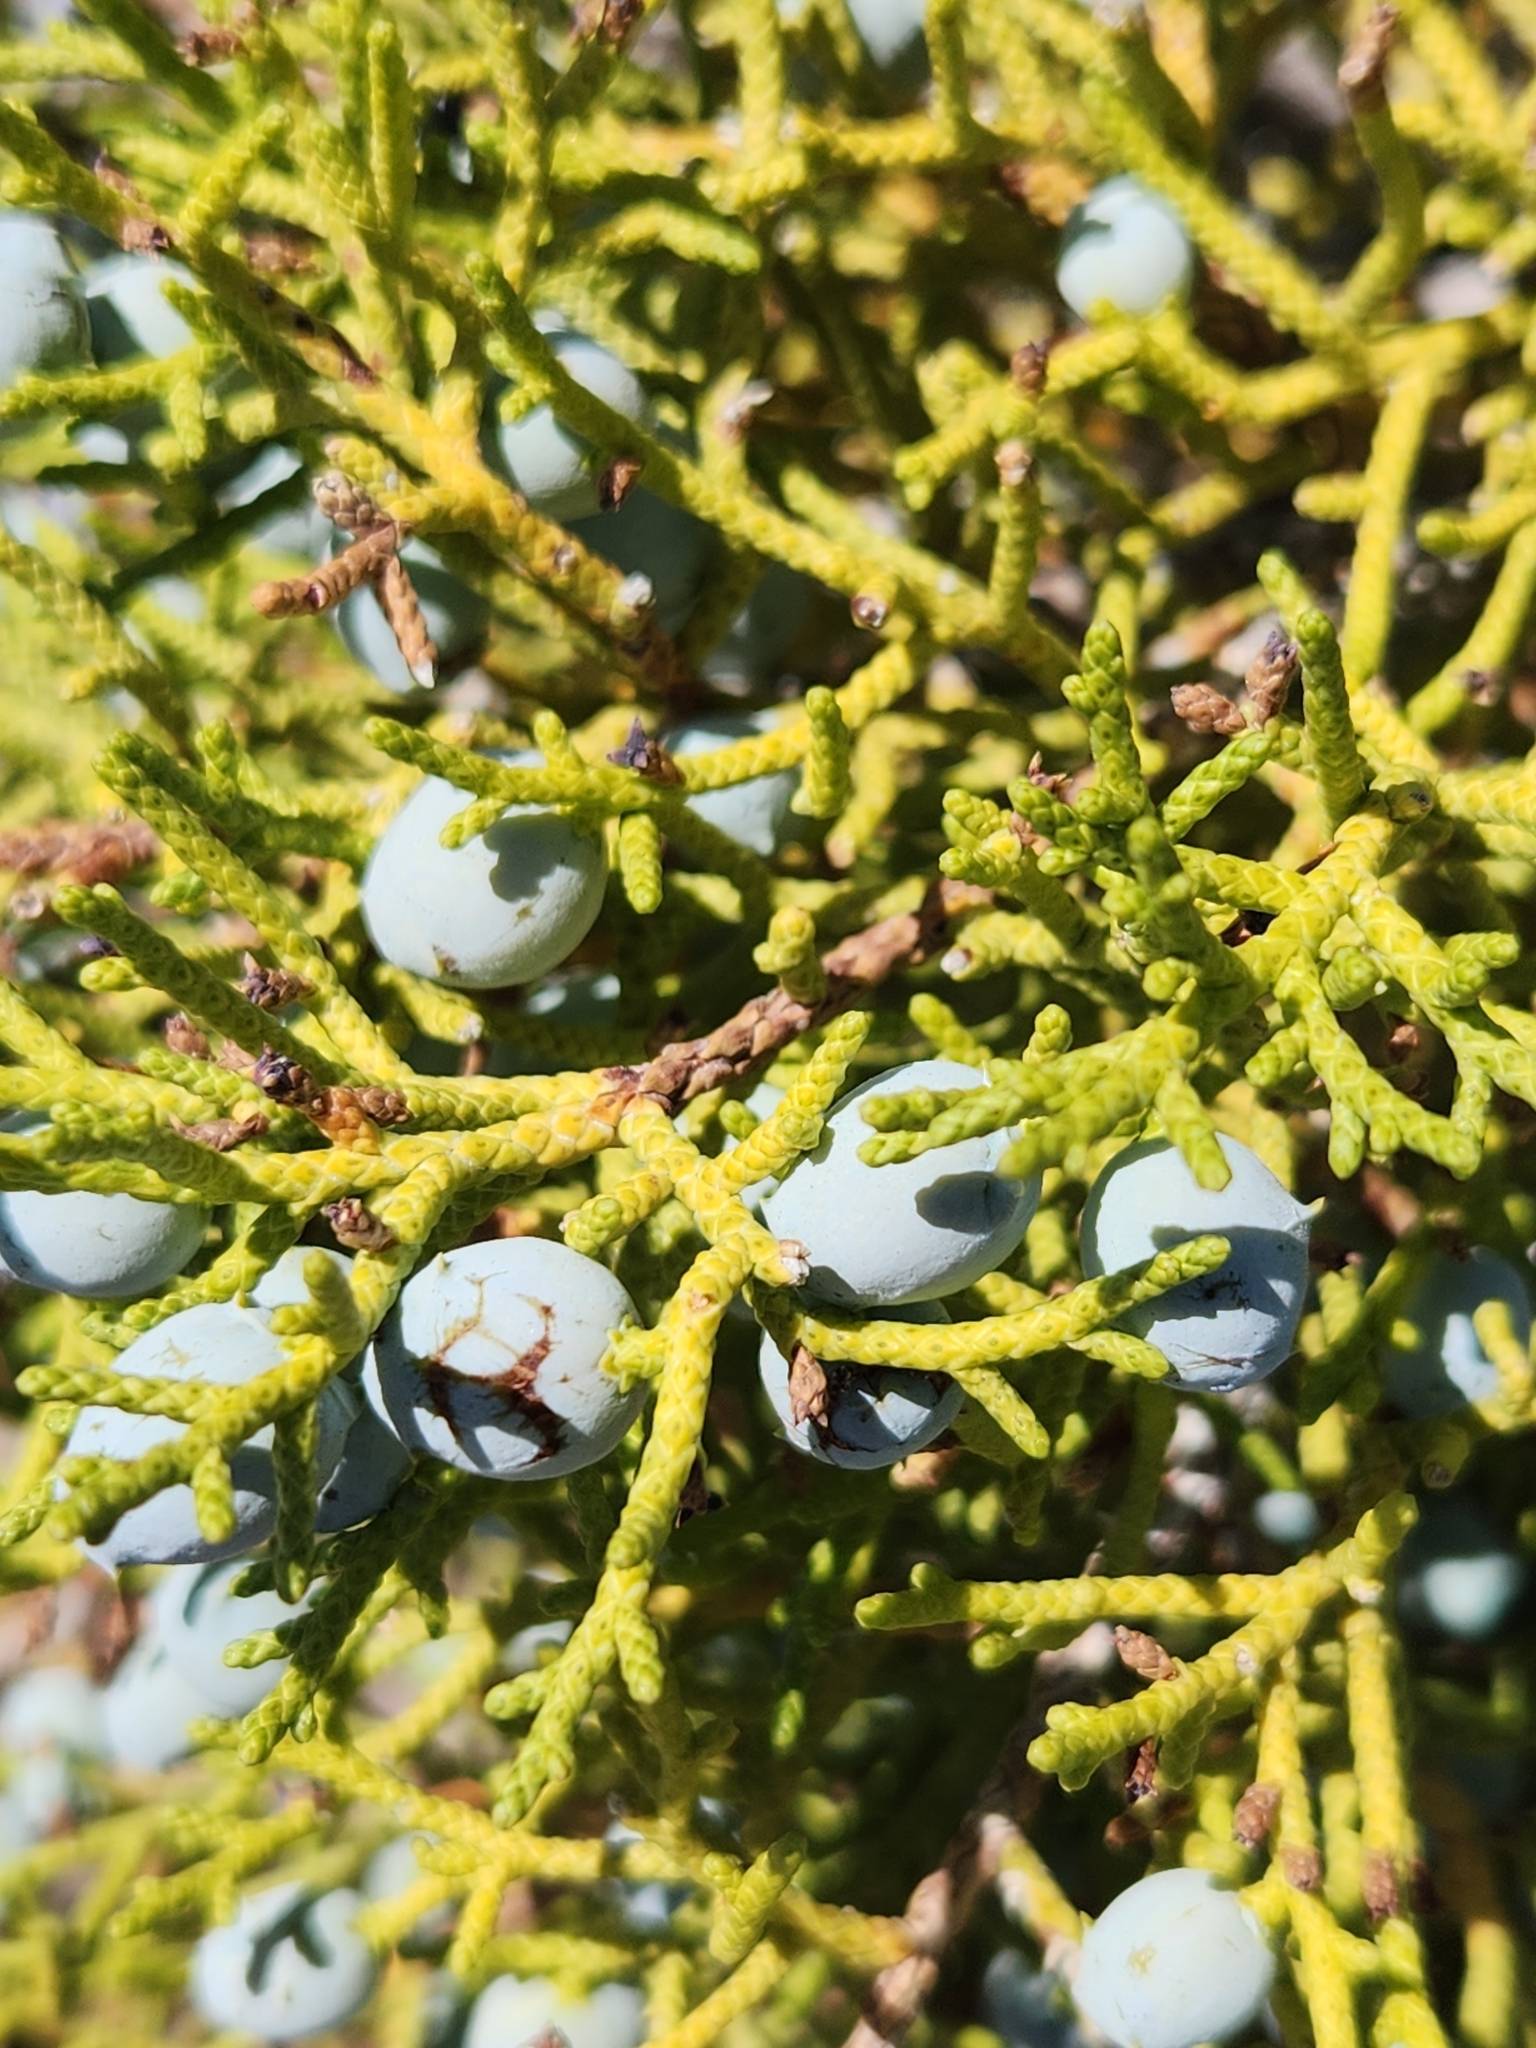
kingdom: Plantae
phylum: Tracheophyta
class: Pinopsida
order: Pinales
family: Cupressaceae
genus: Juniperus
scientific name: Juniperus californica
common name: California juniper
